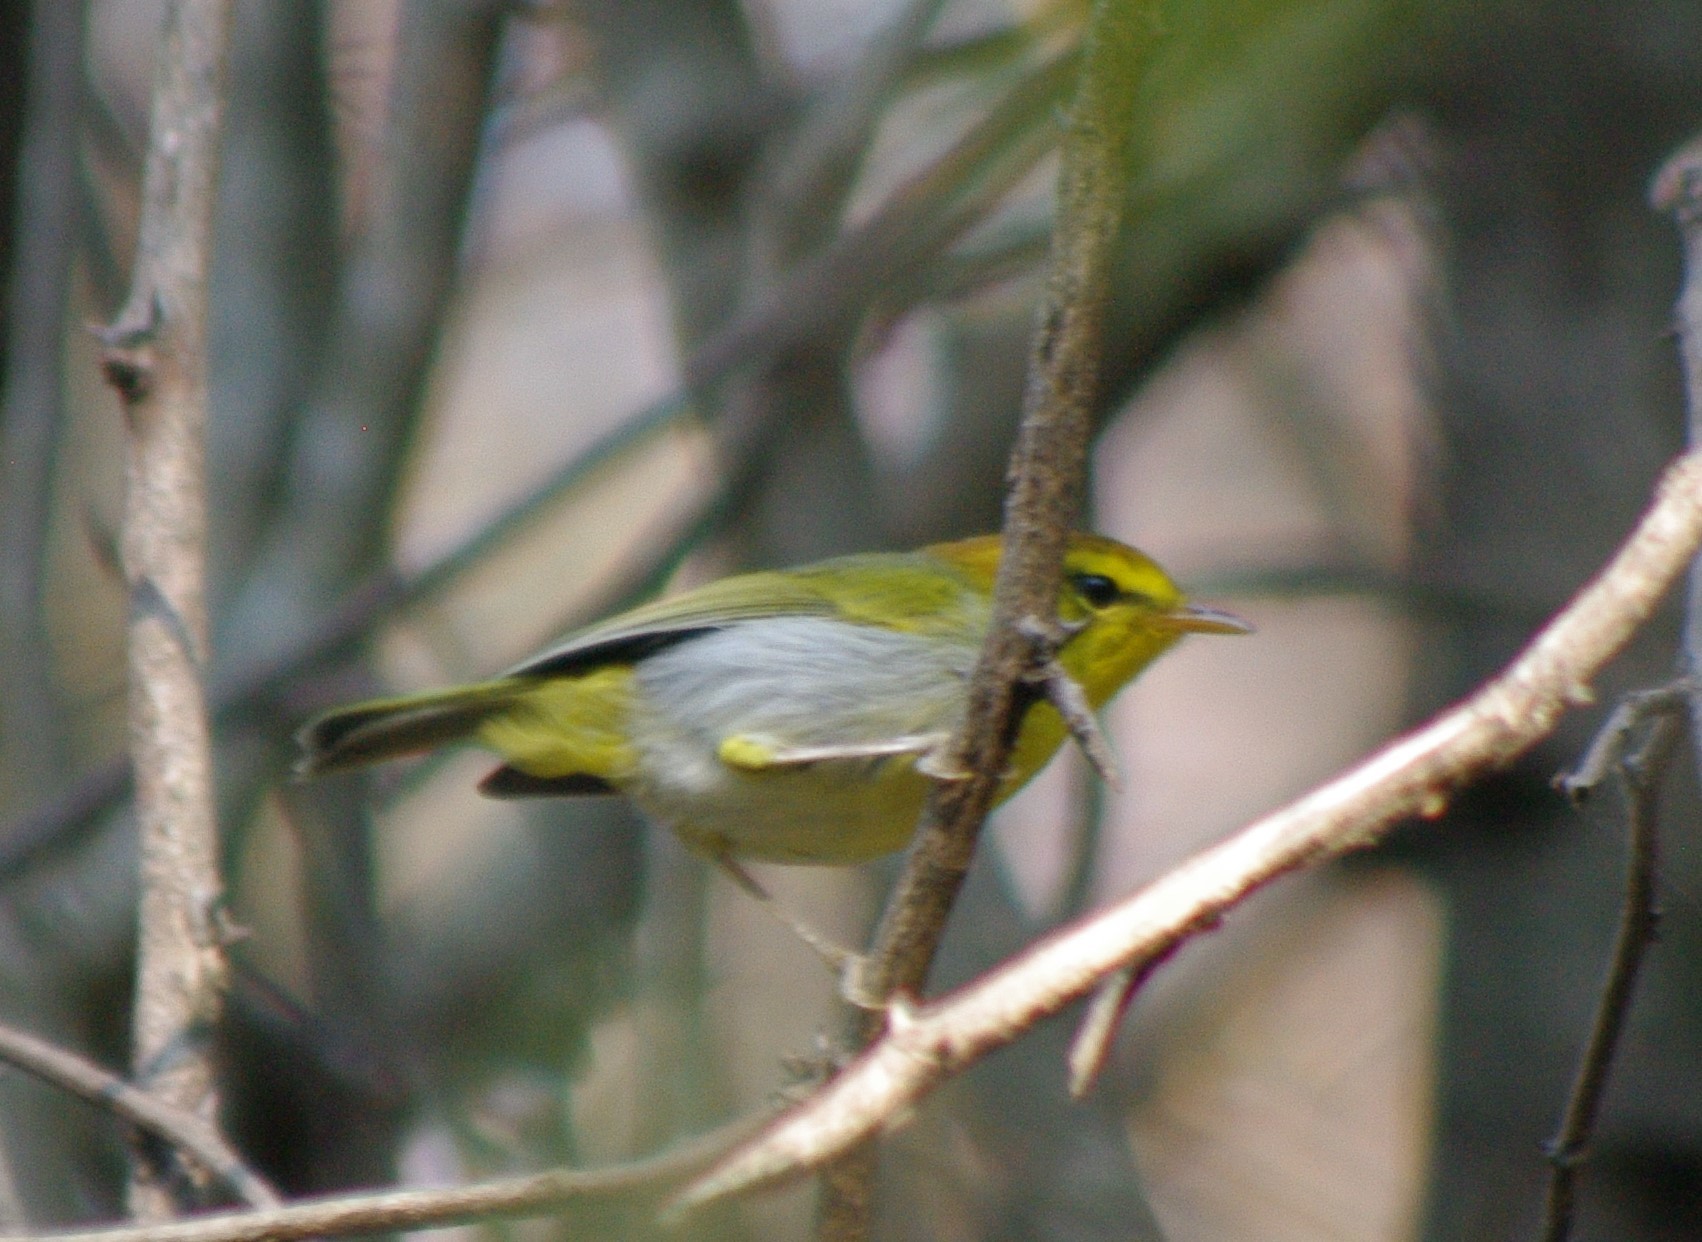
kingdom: Animalia
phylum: Chordata
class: Aves
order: Passeriformes
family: Phylloscopidae
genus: Phylloscopus
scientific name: Phylloscopus ruficapilla
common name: Yellow-throated woodland warbler
